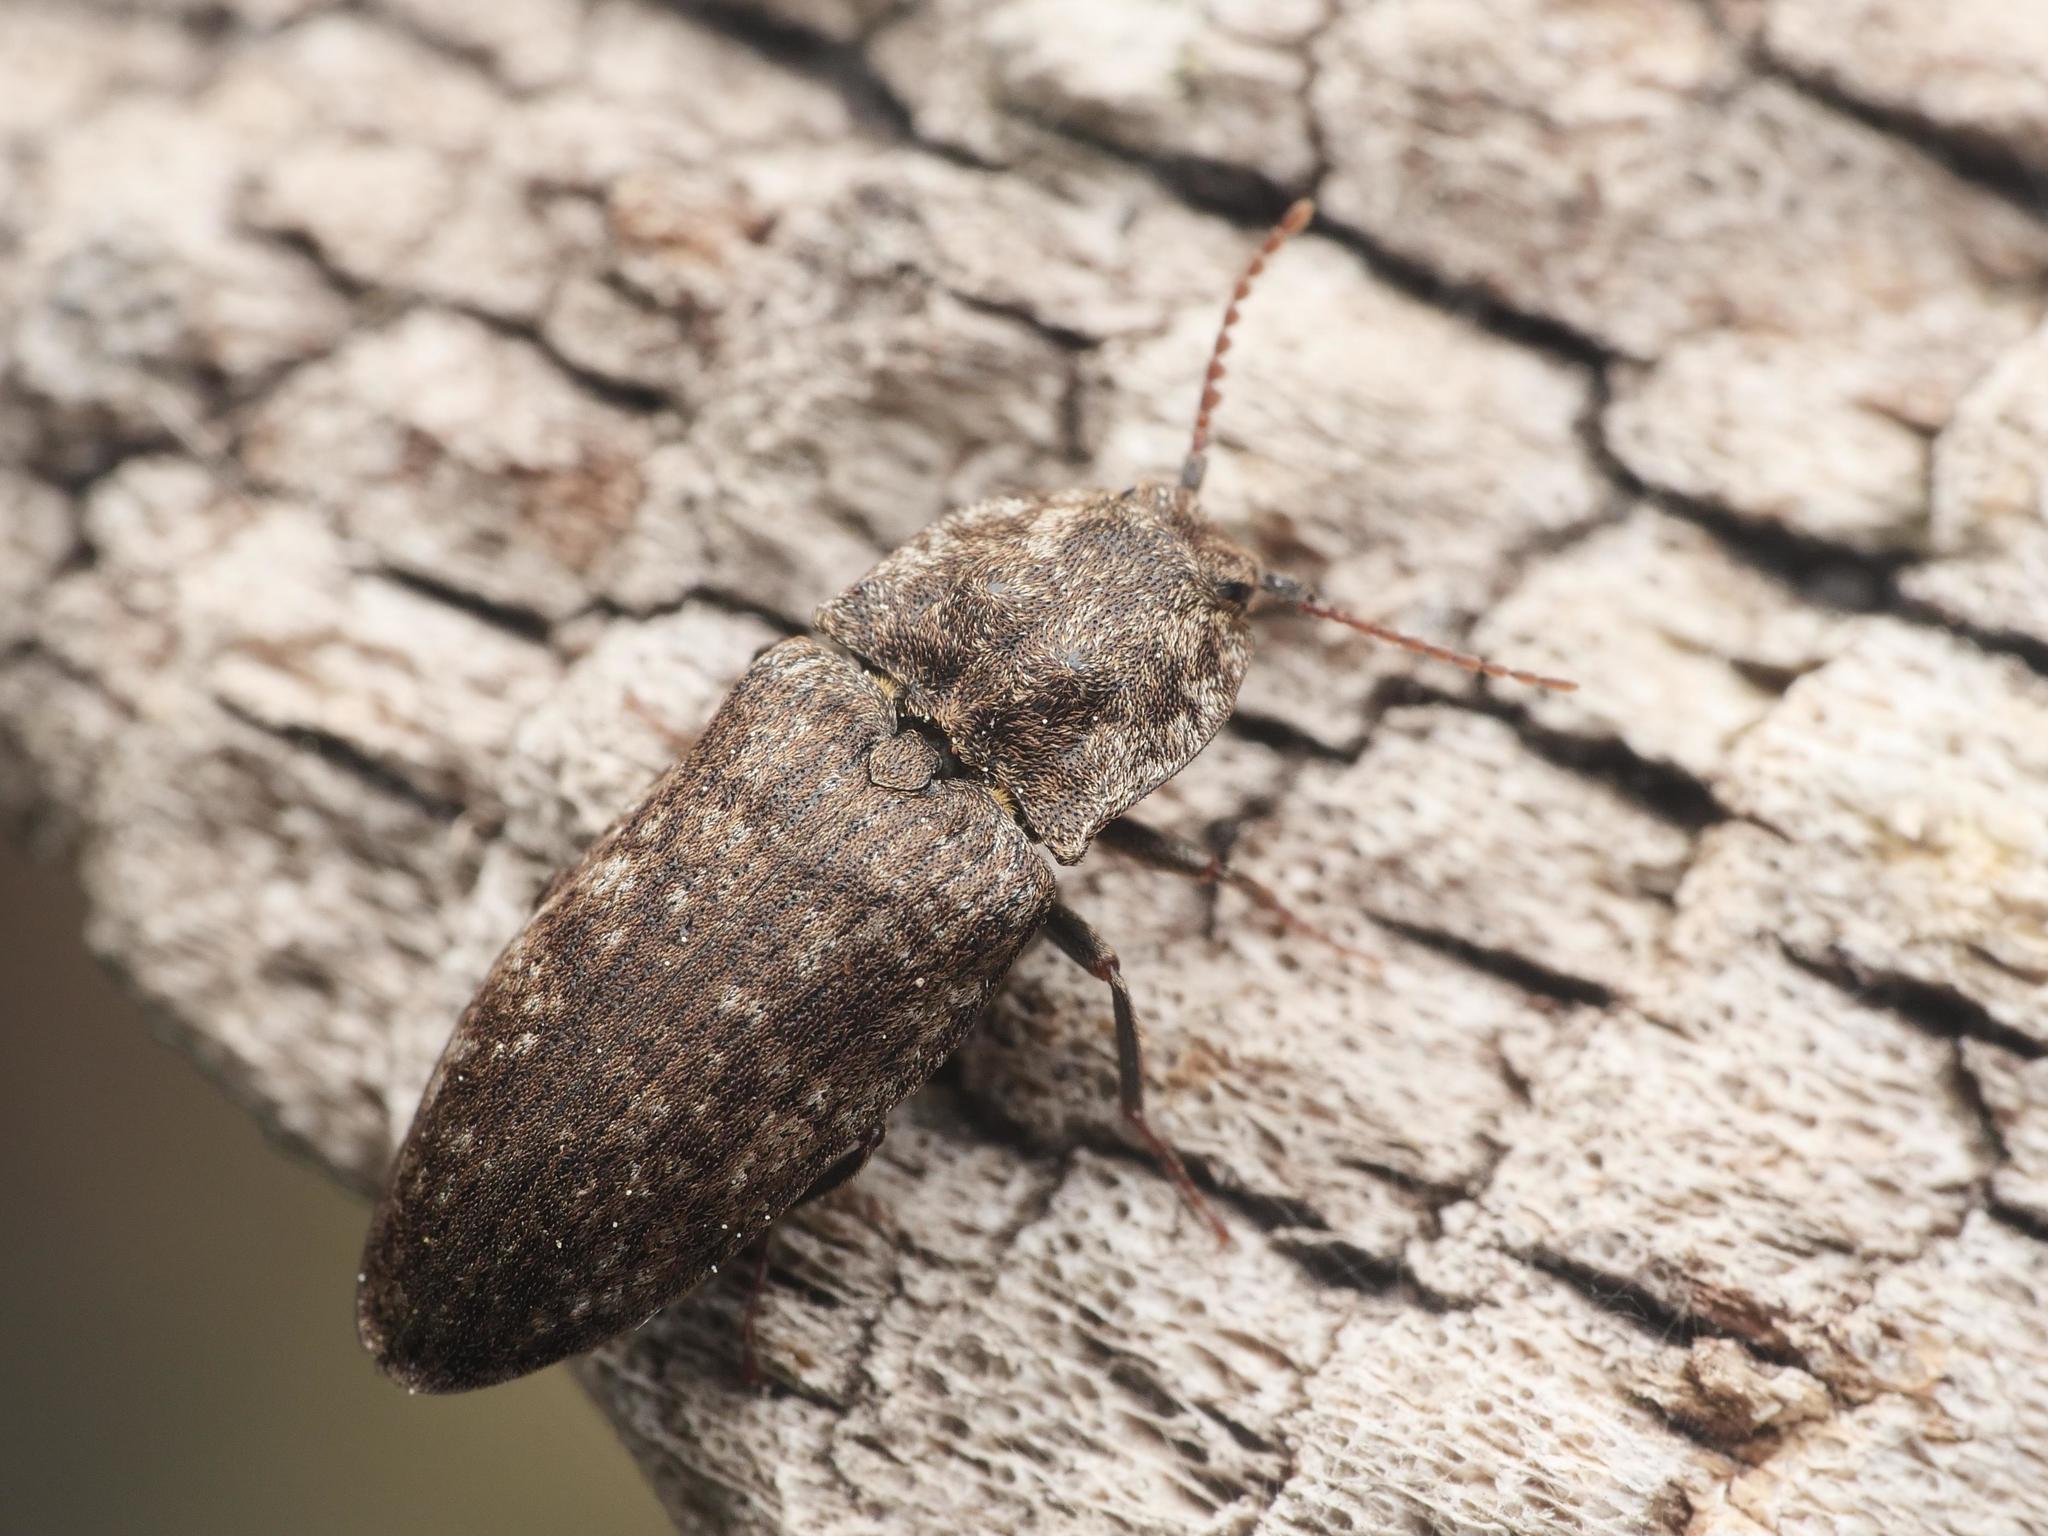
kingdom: Animalia
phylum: Arthropoda
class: Insecta
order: Coleoptera
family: Elateridae
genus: Agrypnus
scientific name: Agrypnus murinus
